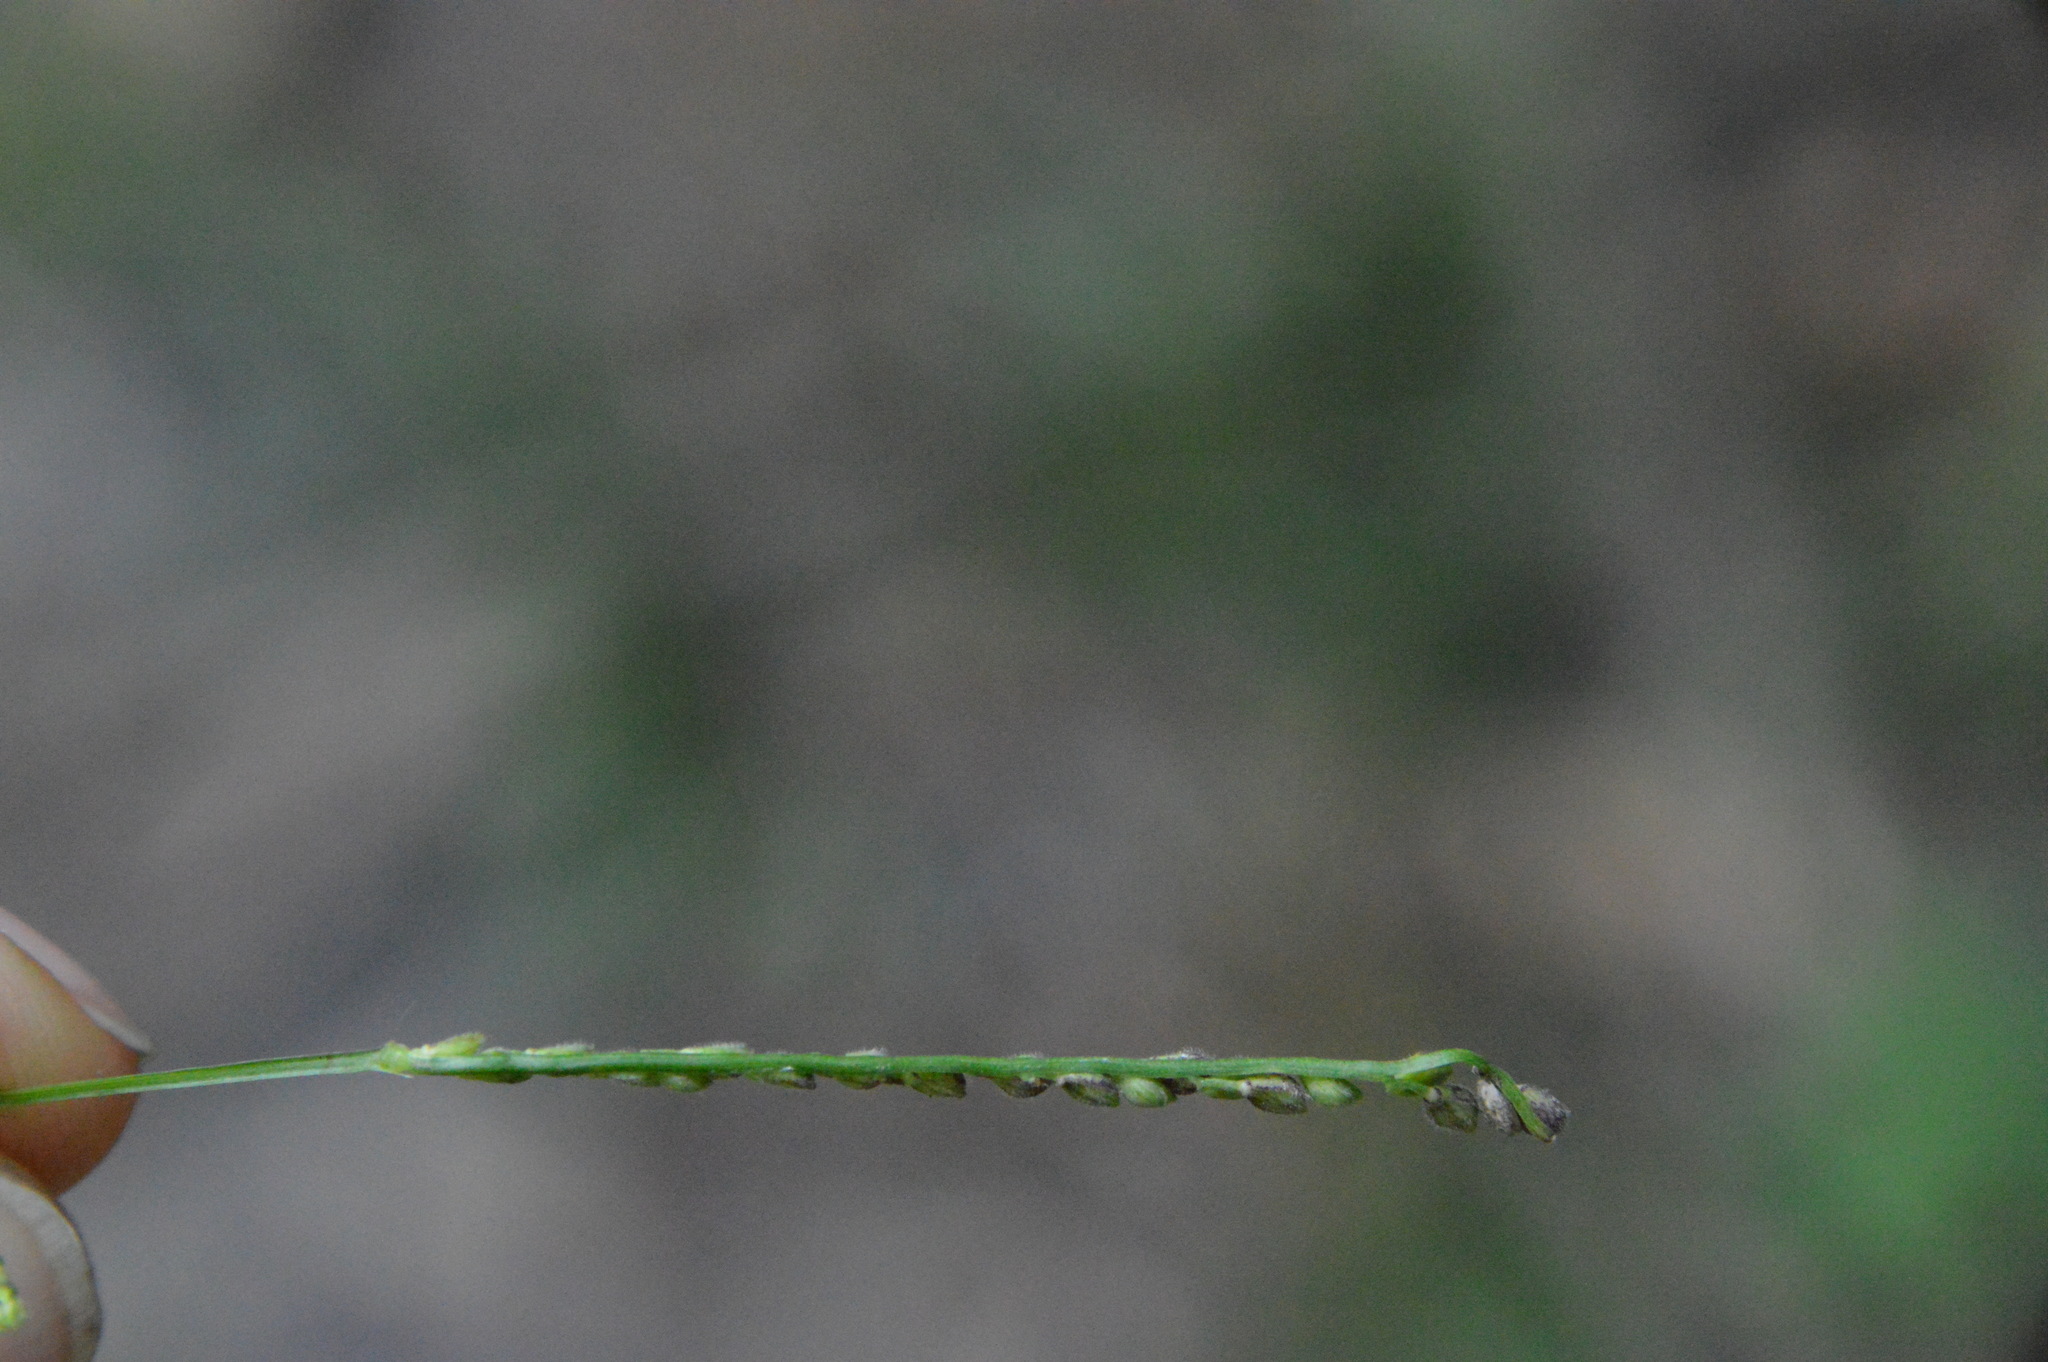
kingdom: Plantae
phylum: Tracheophyta
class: Liliopsida
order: Poales
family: Poaceae
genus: Paspalum
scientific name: Paspalum langei
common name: Rusty-seed paspalum
